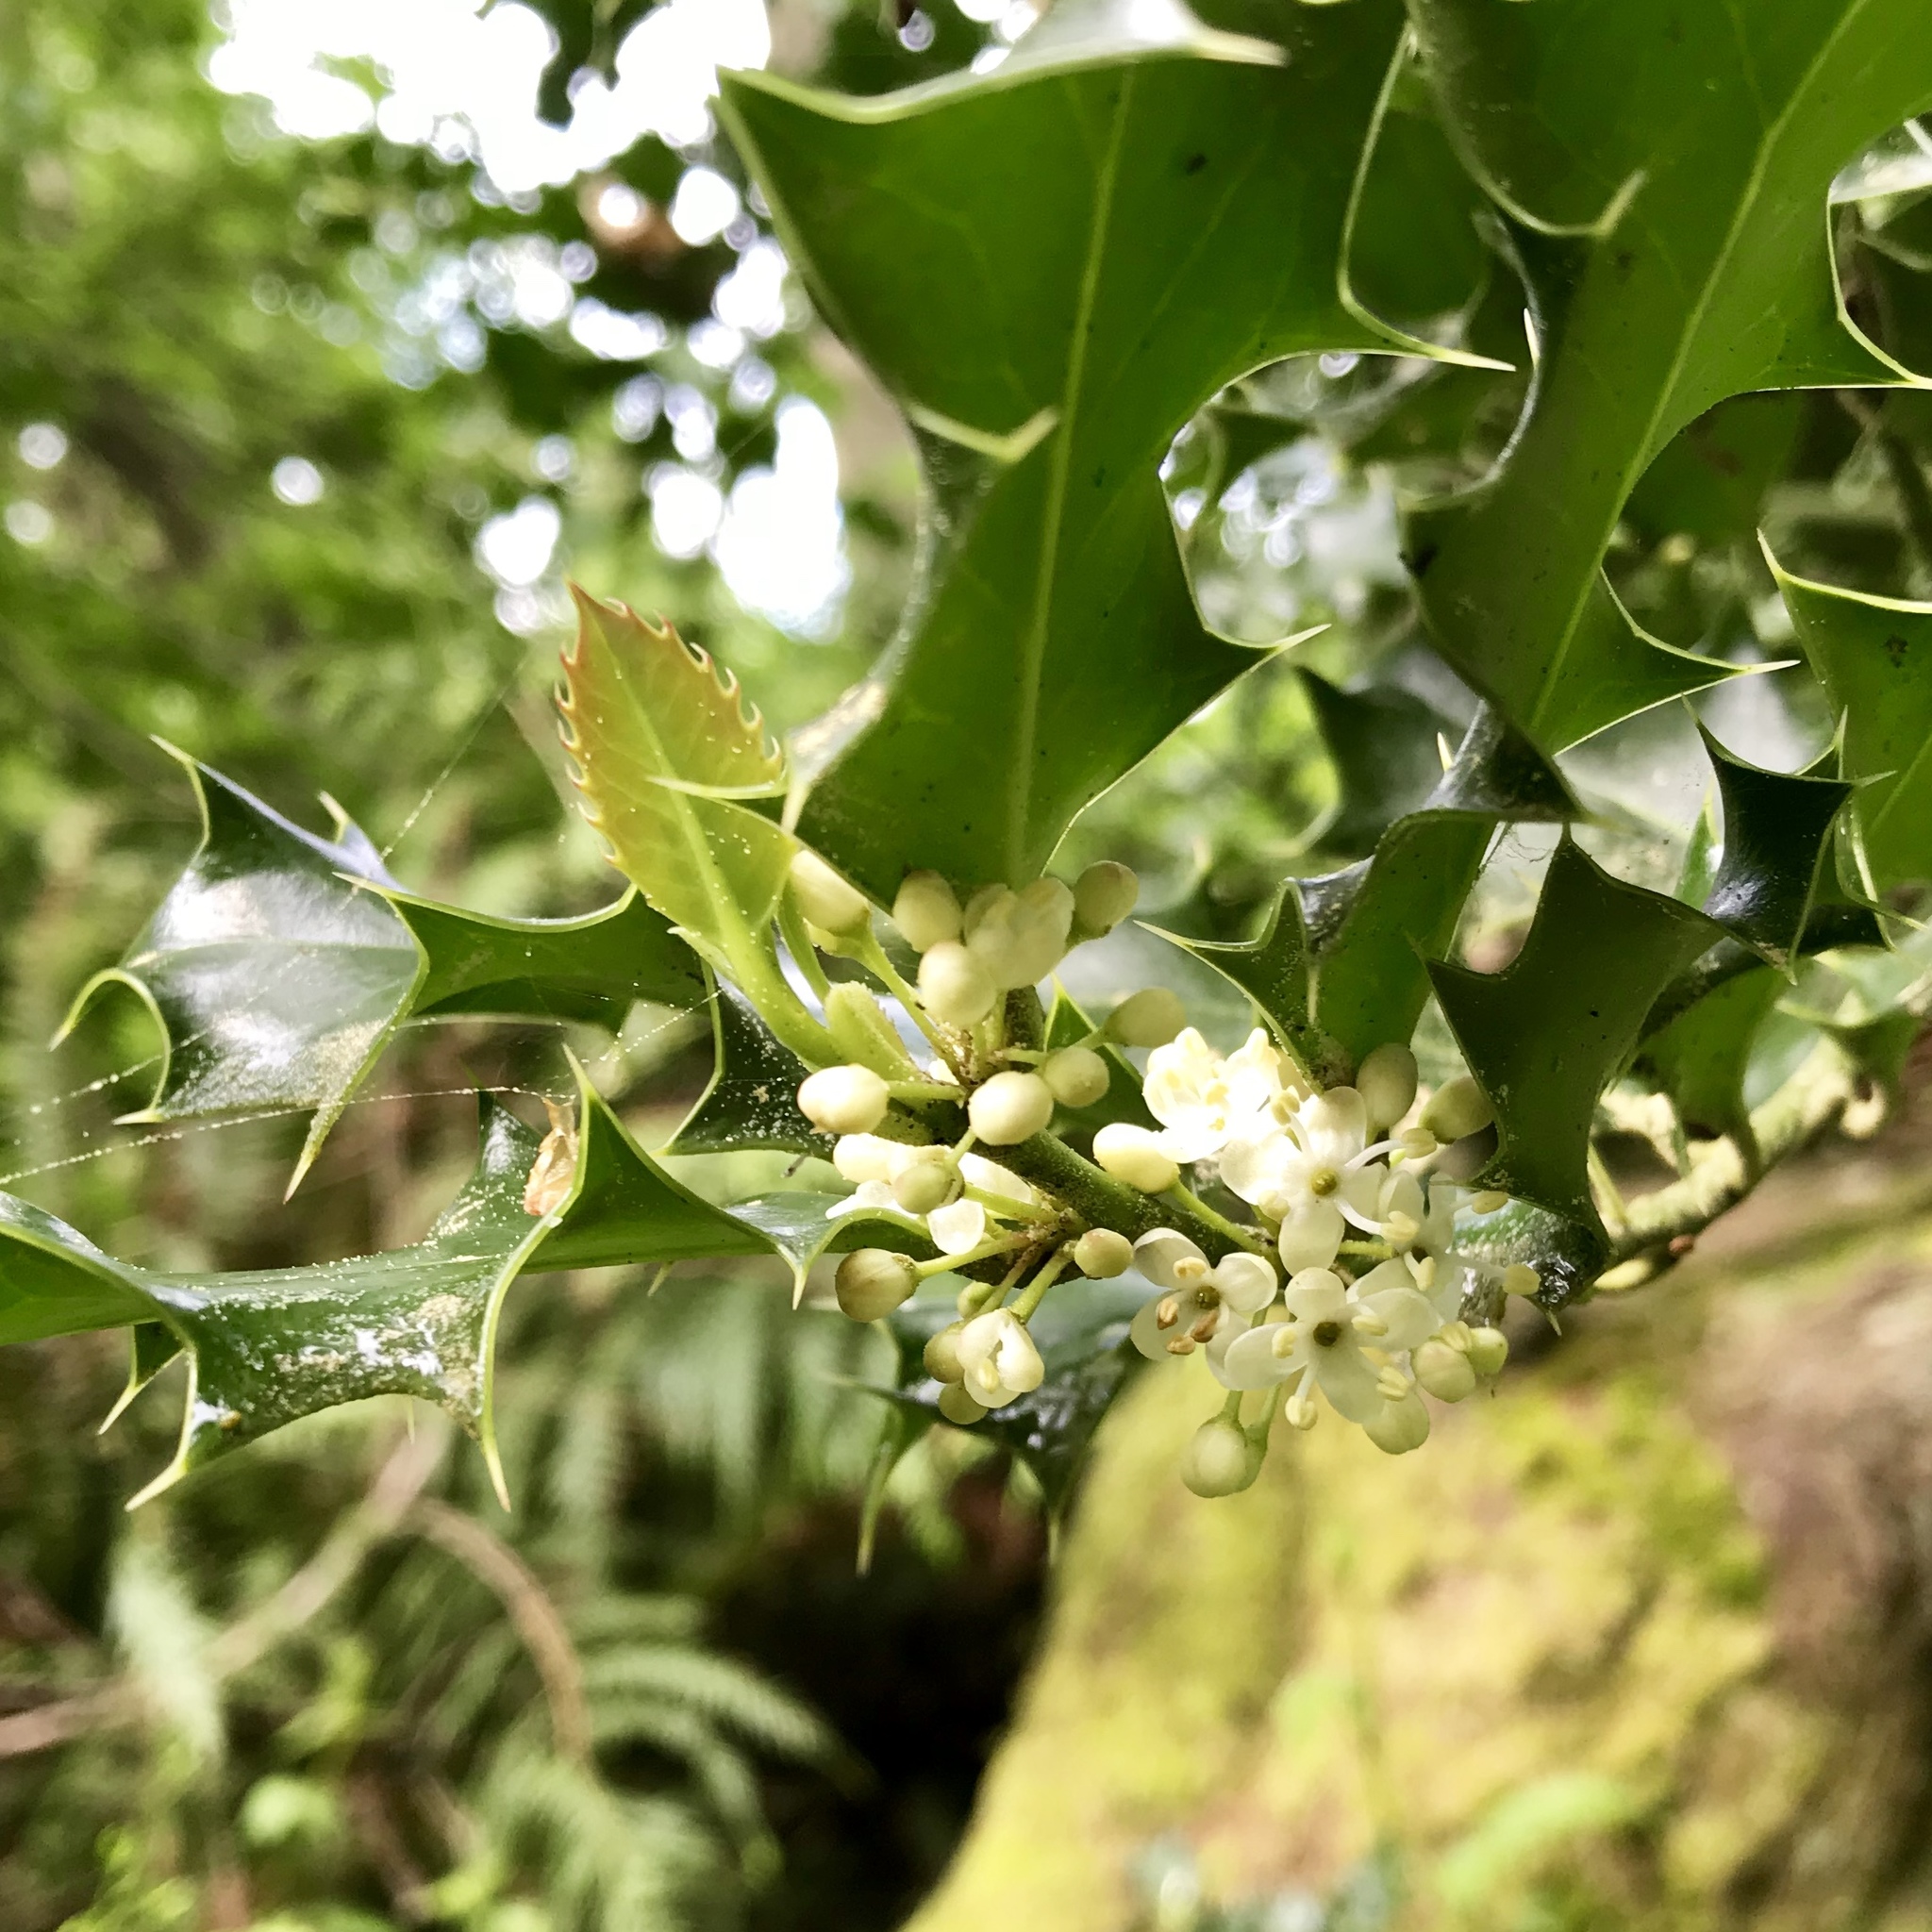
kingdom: Plantae
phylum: Tracheophyta
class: Magnoliopsida
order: Aquifoliales
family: Aquifoliaceae
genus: Ilex
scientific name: Ilex aquifolium
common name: English holly
